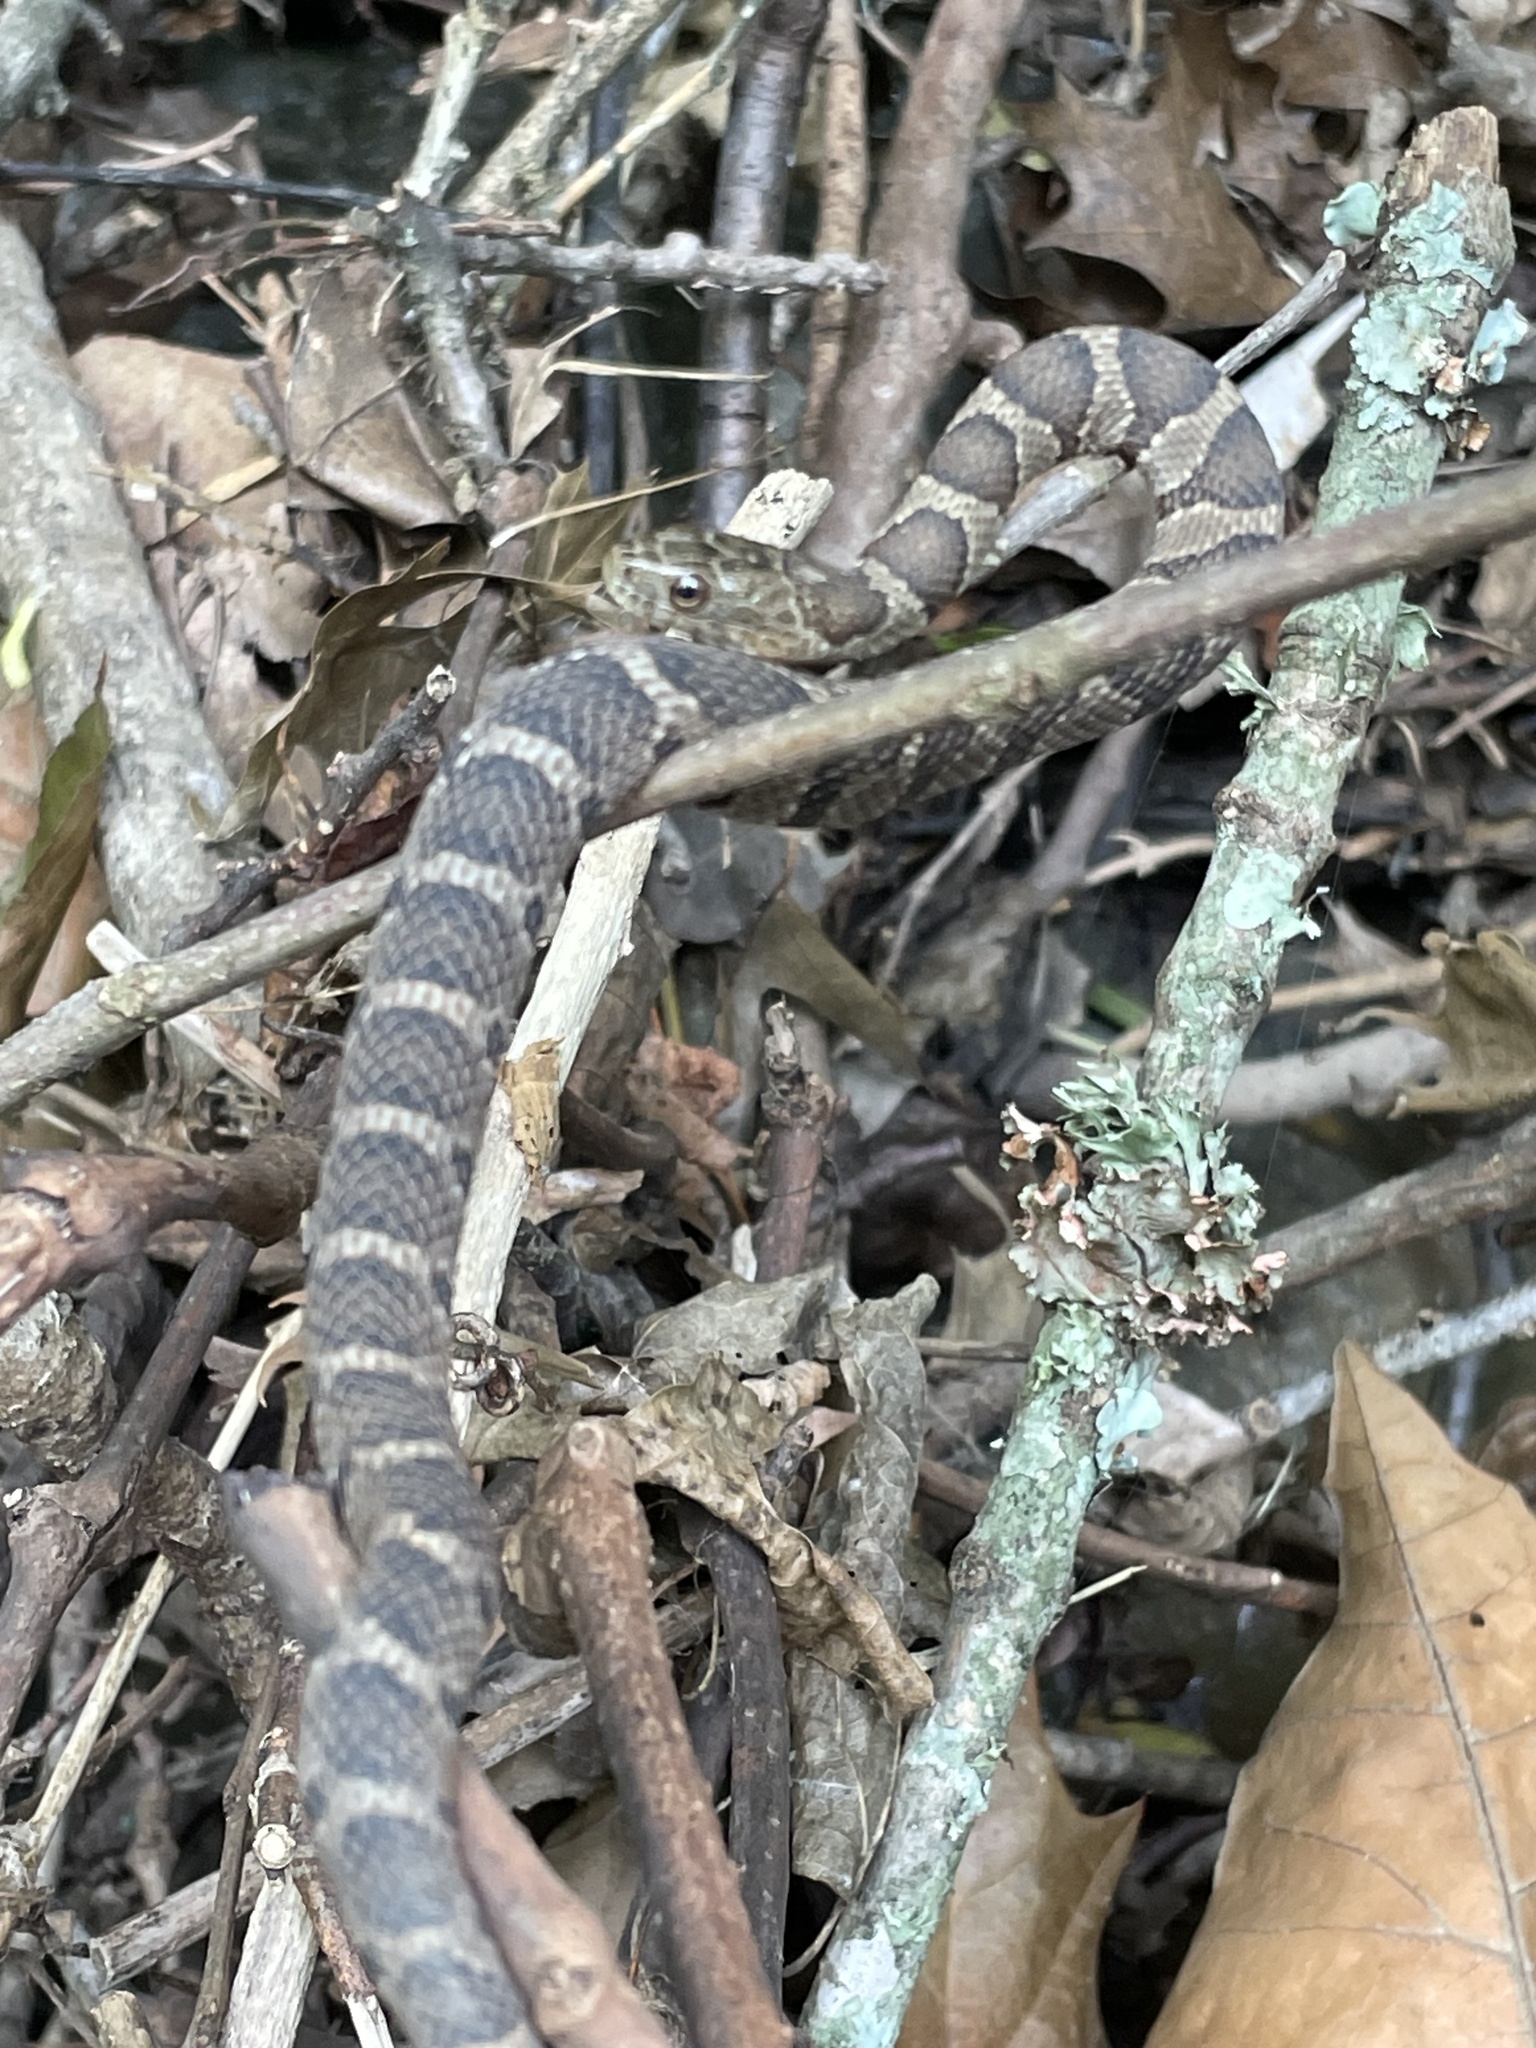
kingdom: Animalia
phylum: Chordata
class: Squamata
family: Colubridae
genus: Nerodia
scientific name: Nerodia sipedon
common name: Northern water snake
